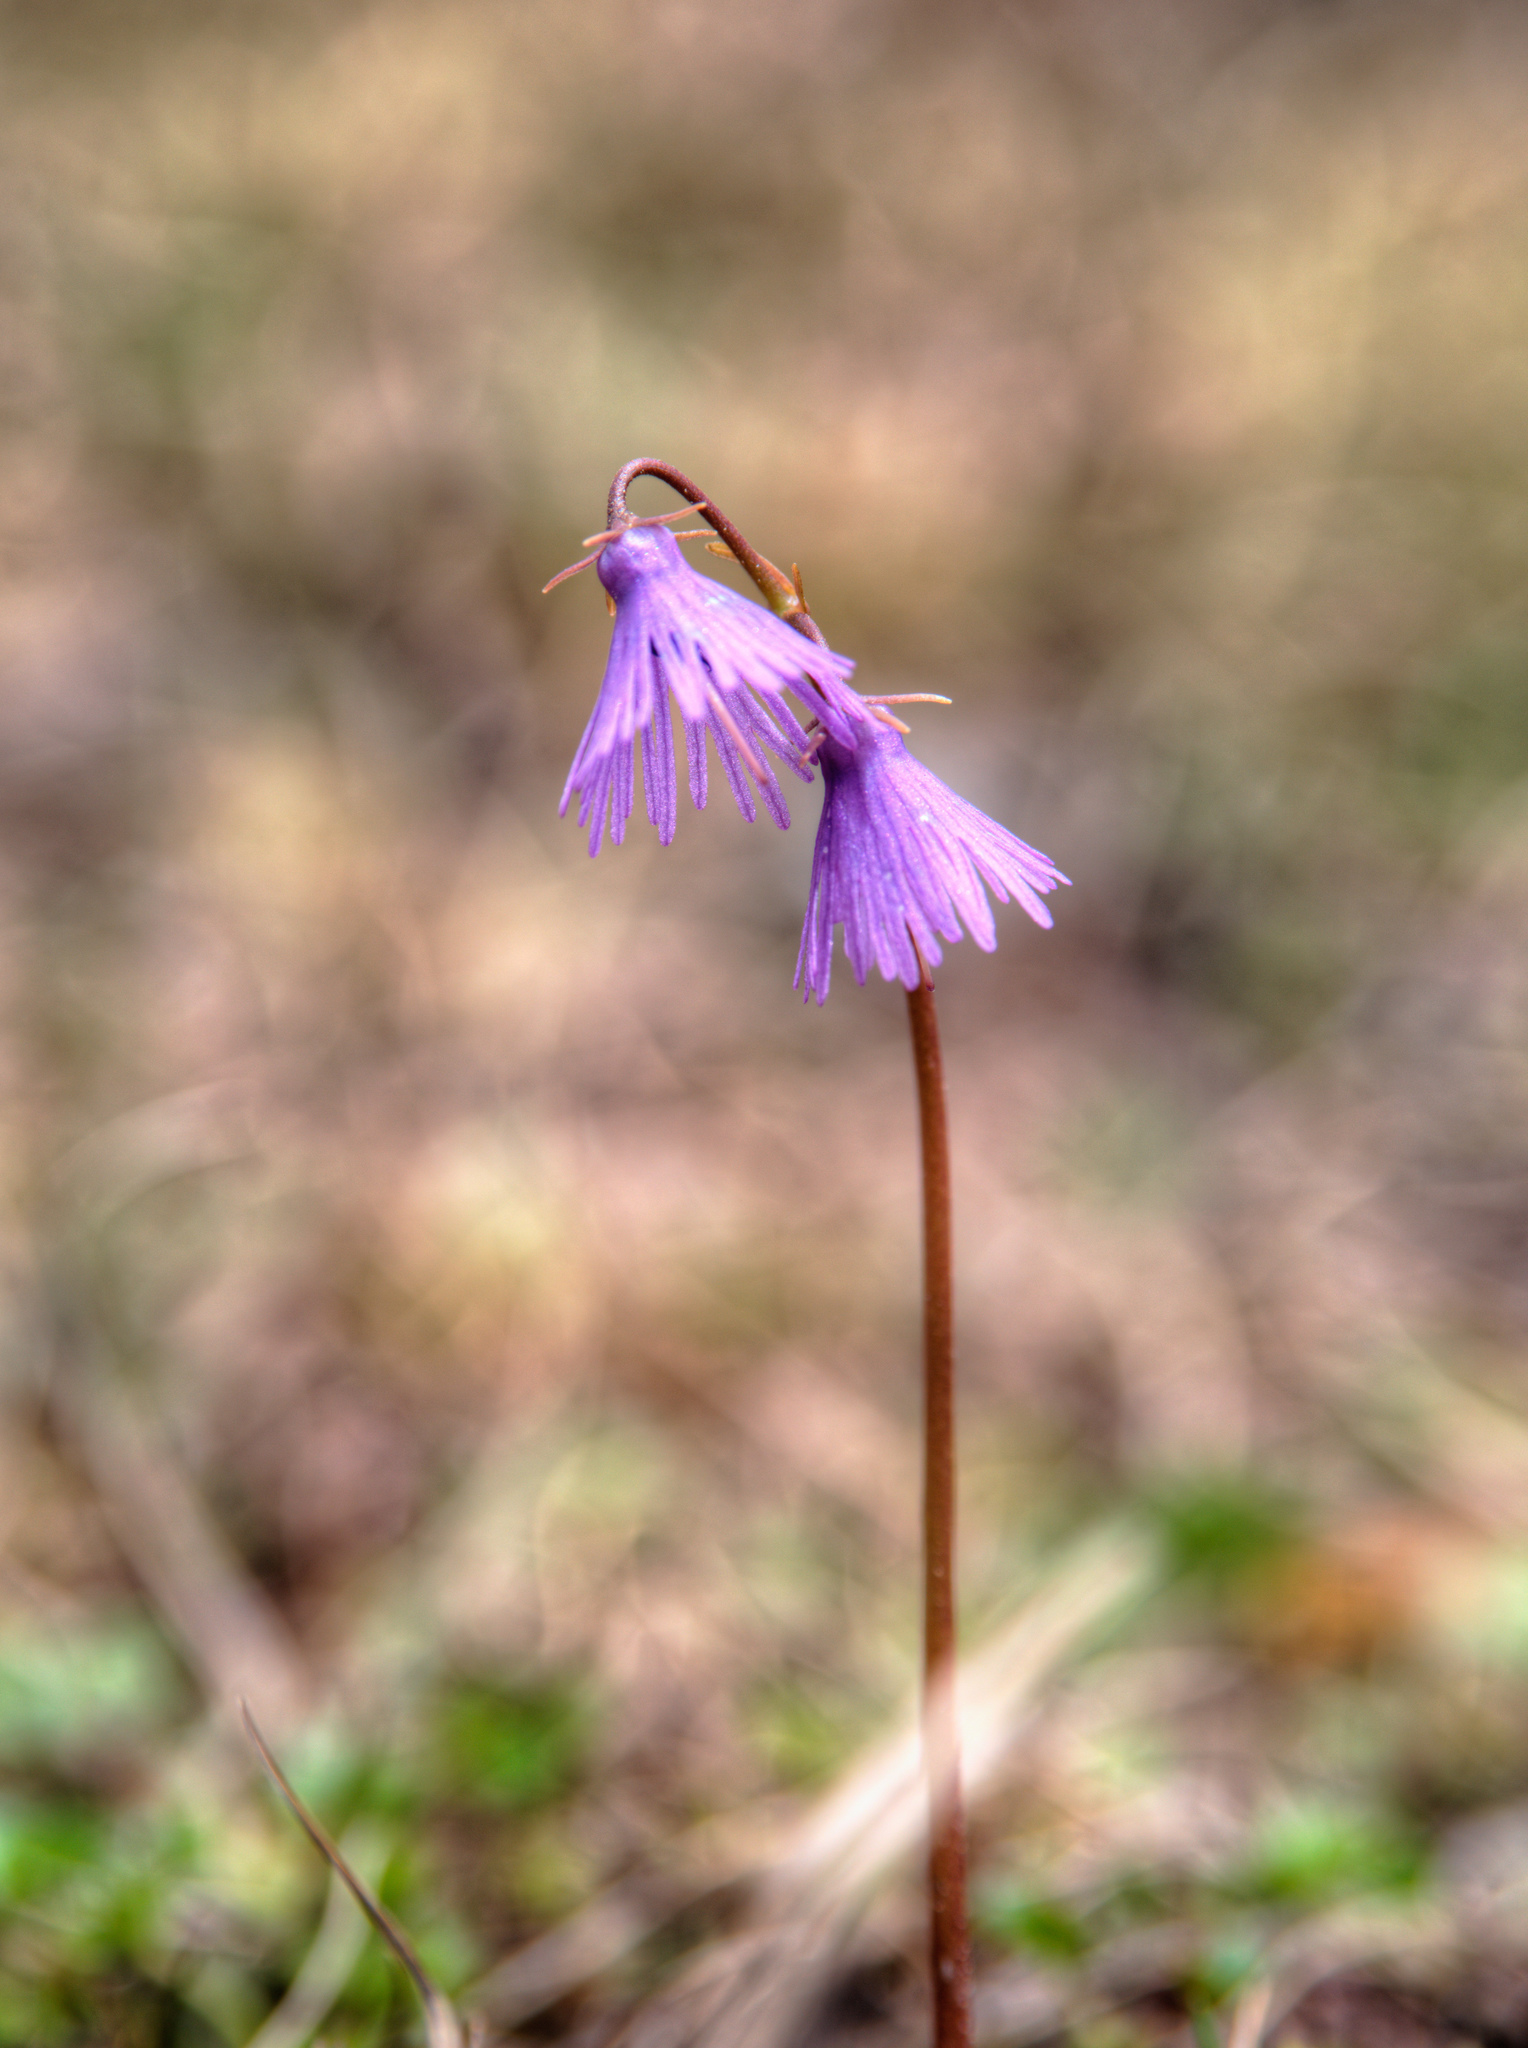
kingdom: Plantae
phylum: Tracheophyta
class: Magnoliopsida
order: Ericales
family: Primulaceae
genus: Soldanella
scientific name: Soldanella alpina
